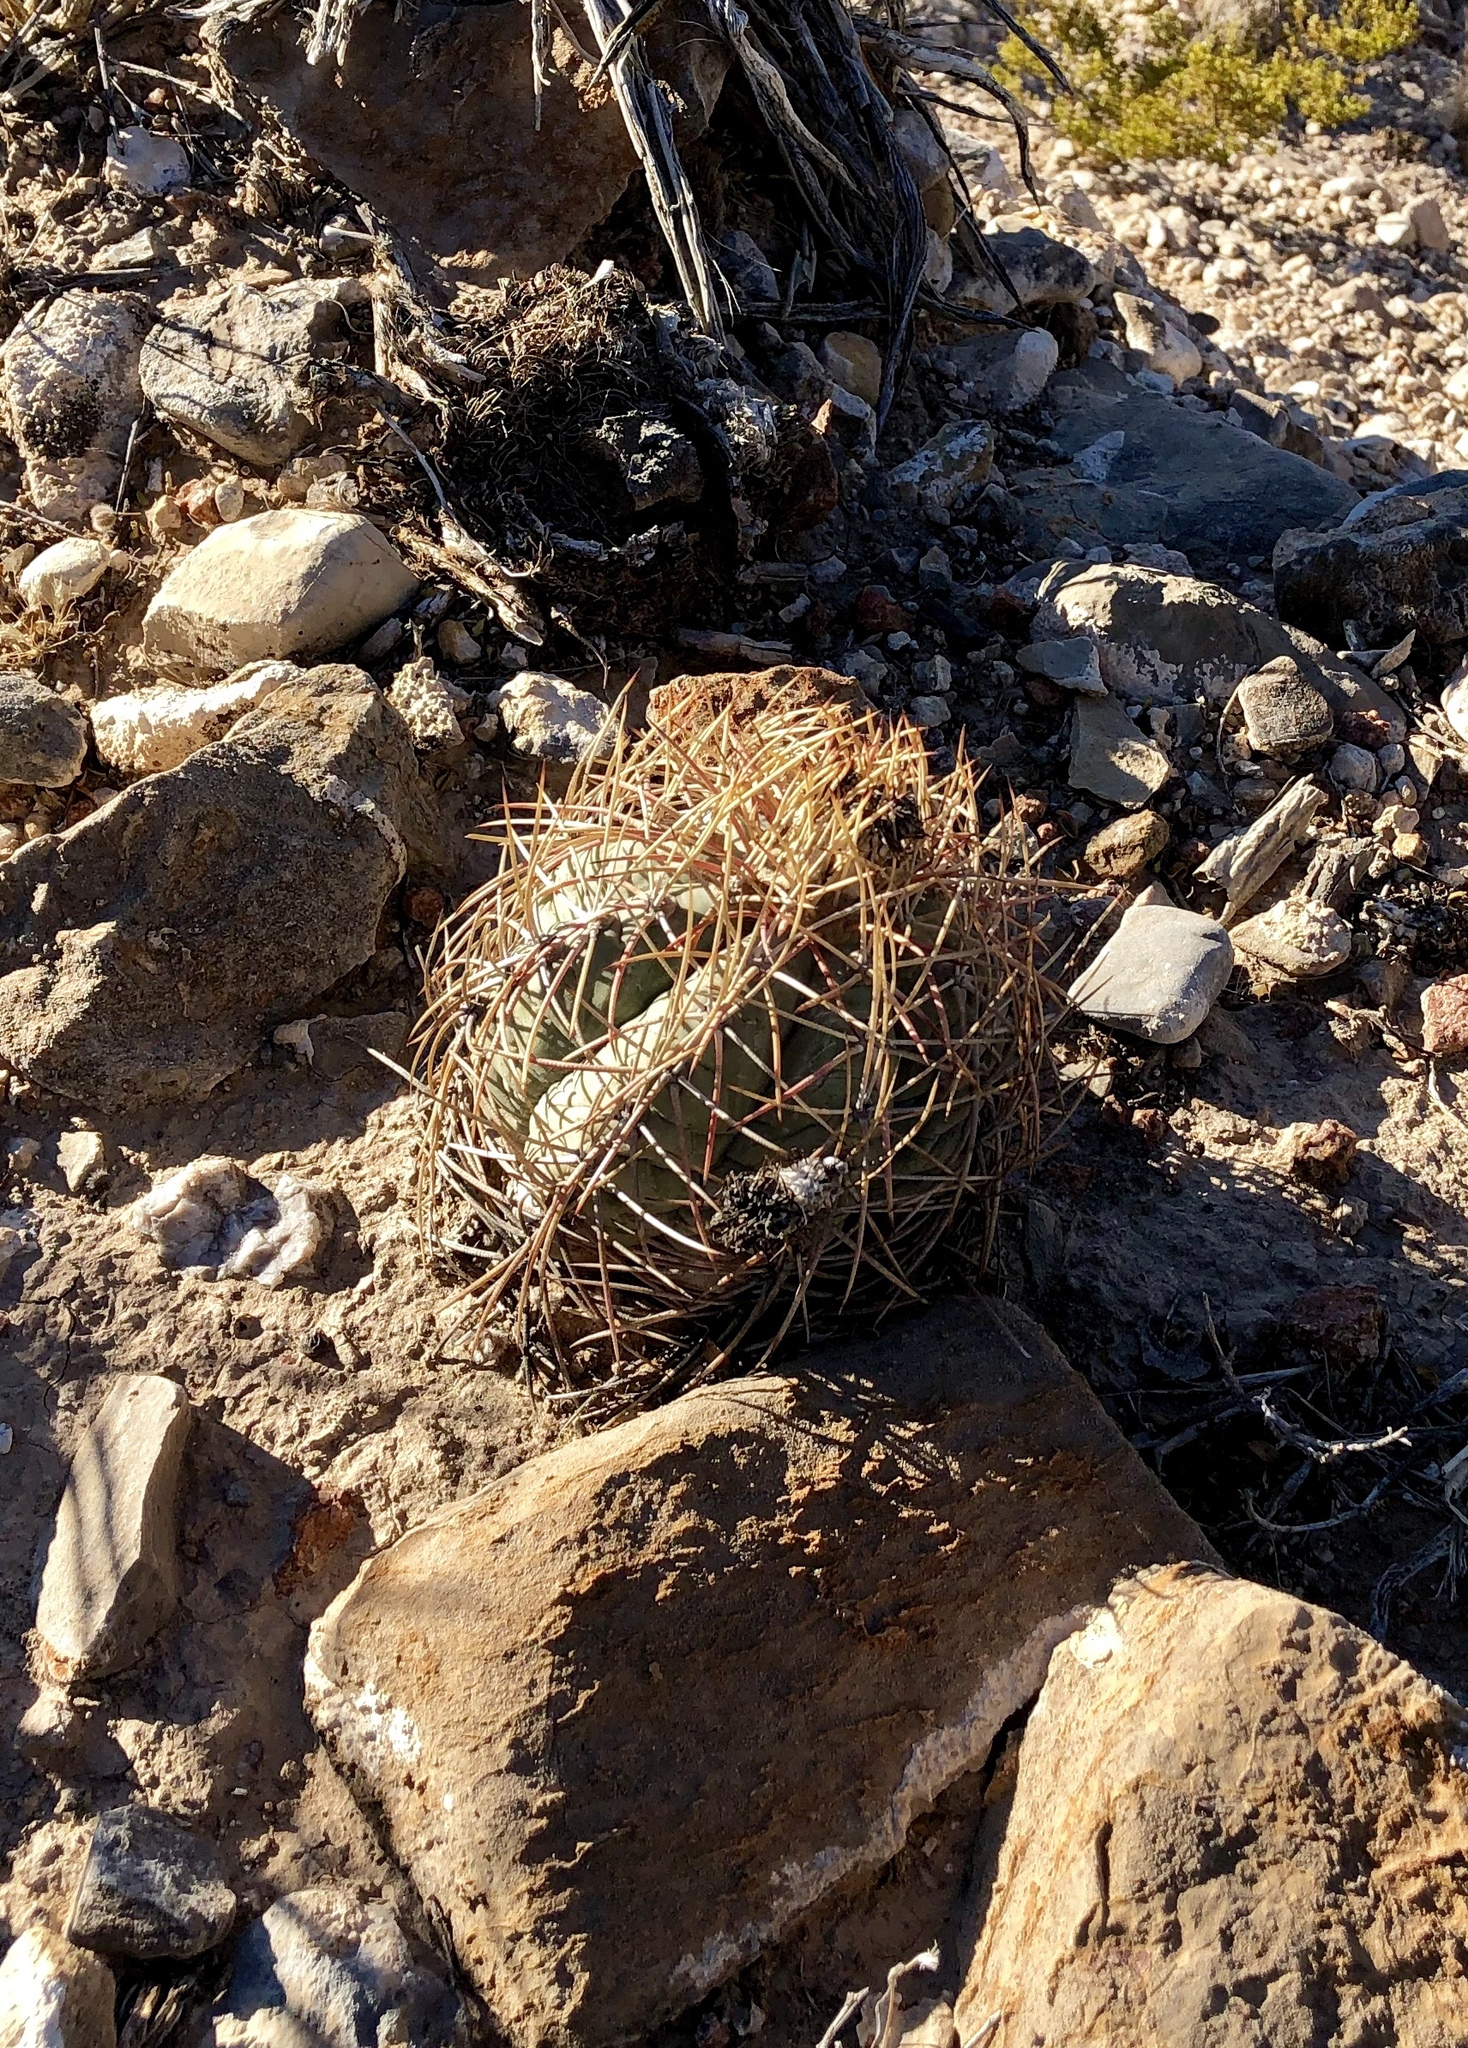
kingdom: Plantae
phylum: Tracheophyta
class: Magnoliopsida
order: Caryophyllales
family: Cactaceae
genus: Echinocactus
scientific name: Echinocactus horizonthalonius
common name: Devilshead
